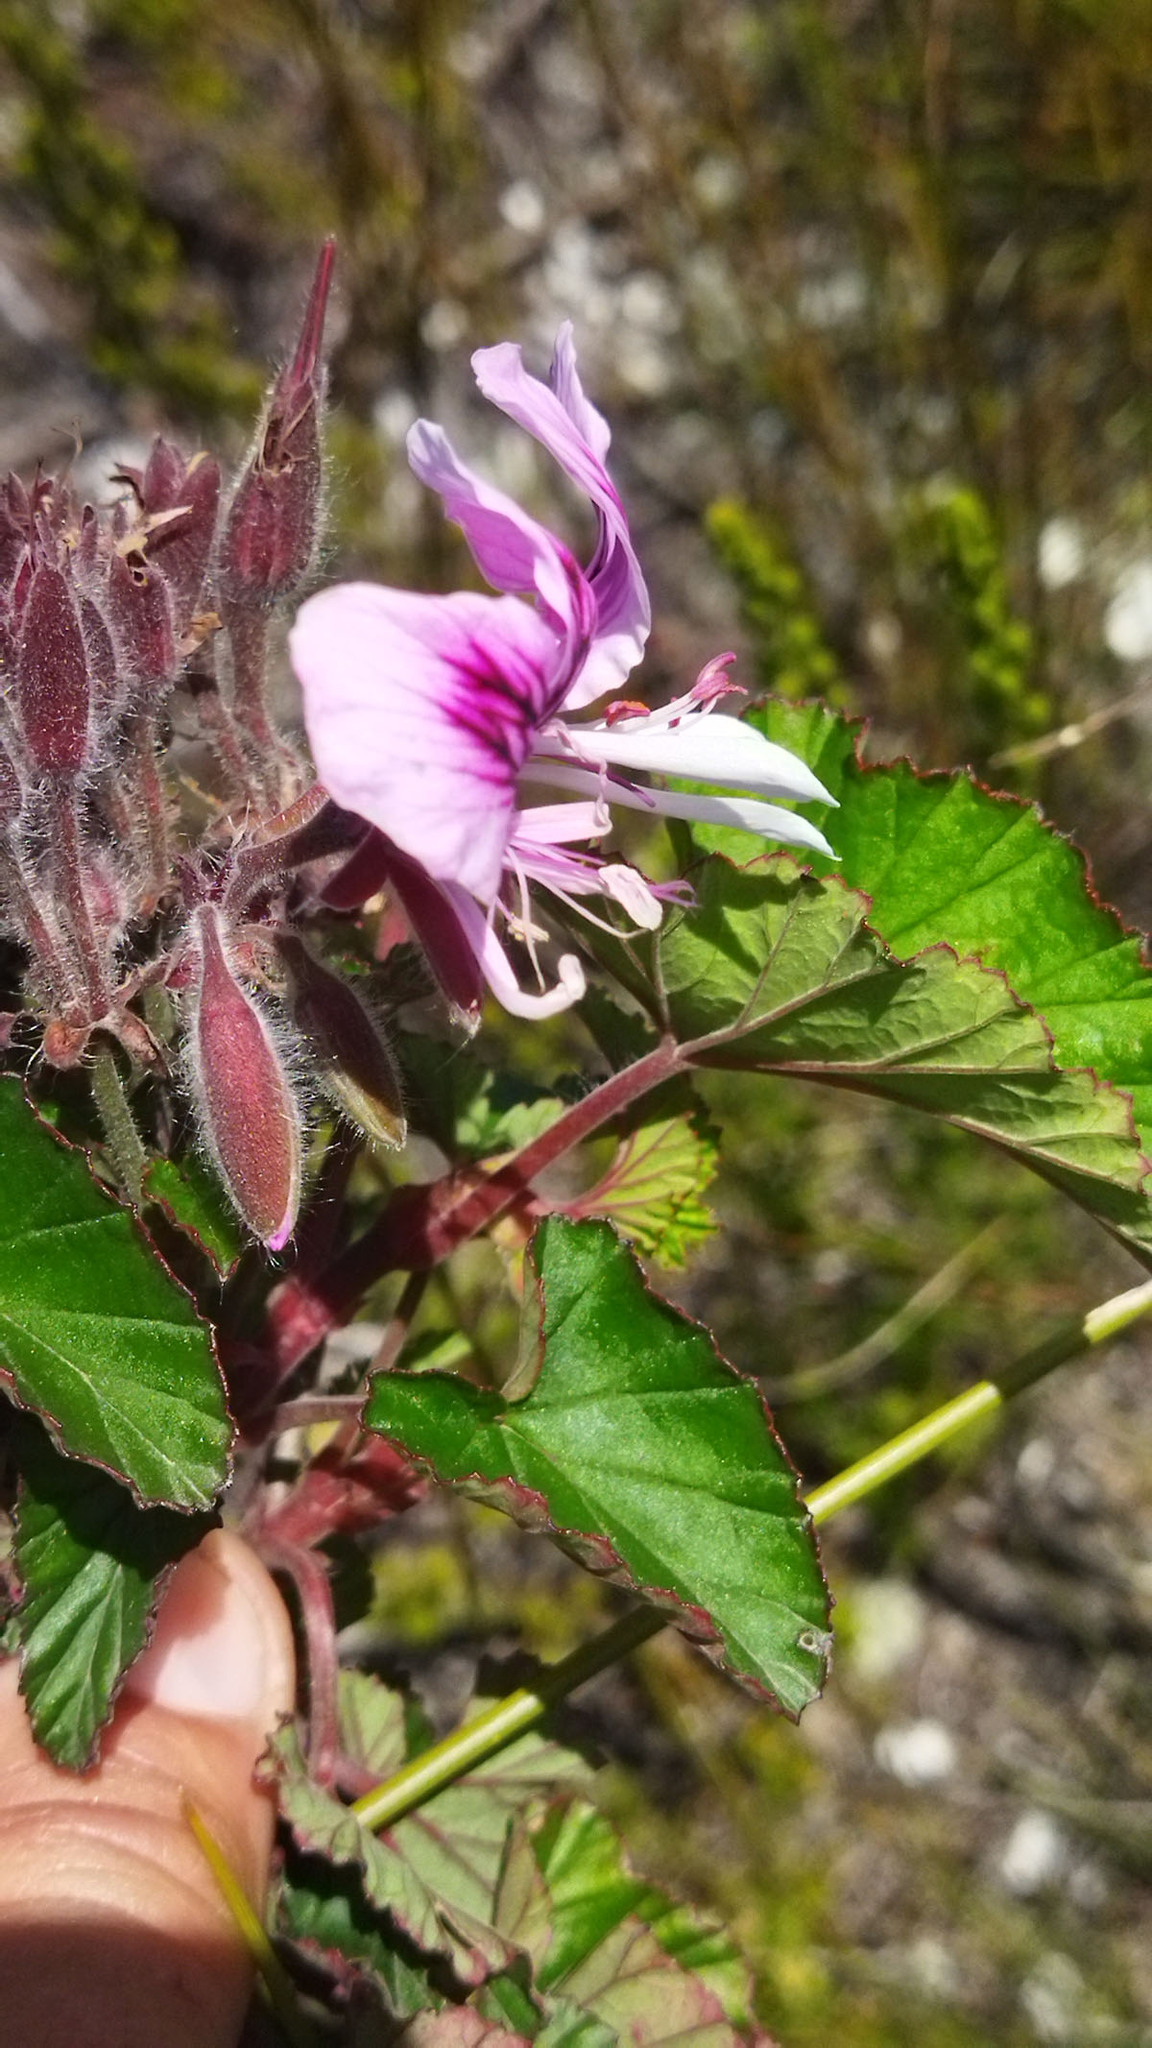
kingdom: Plantae
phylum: Tracheophyta
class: Magnoliopsida
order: Geraniales
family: Geraniaceae
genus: Pelargonium
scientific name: Pelargonium cordifolium
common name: Heart-leaf pelargonium
